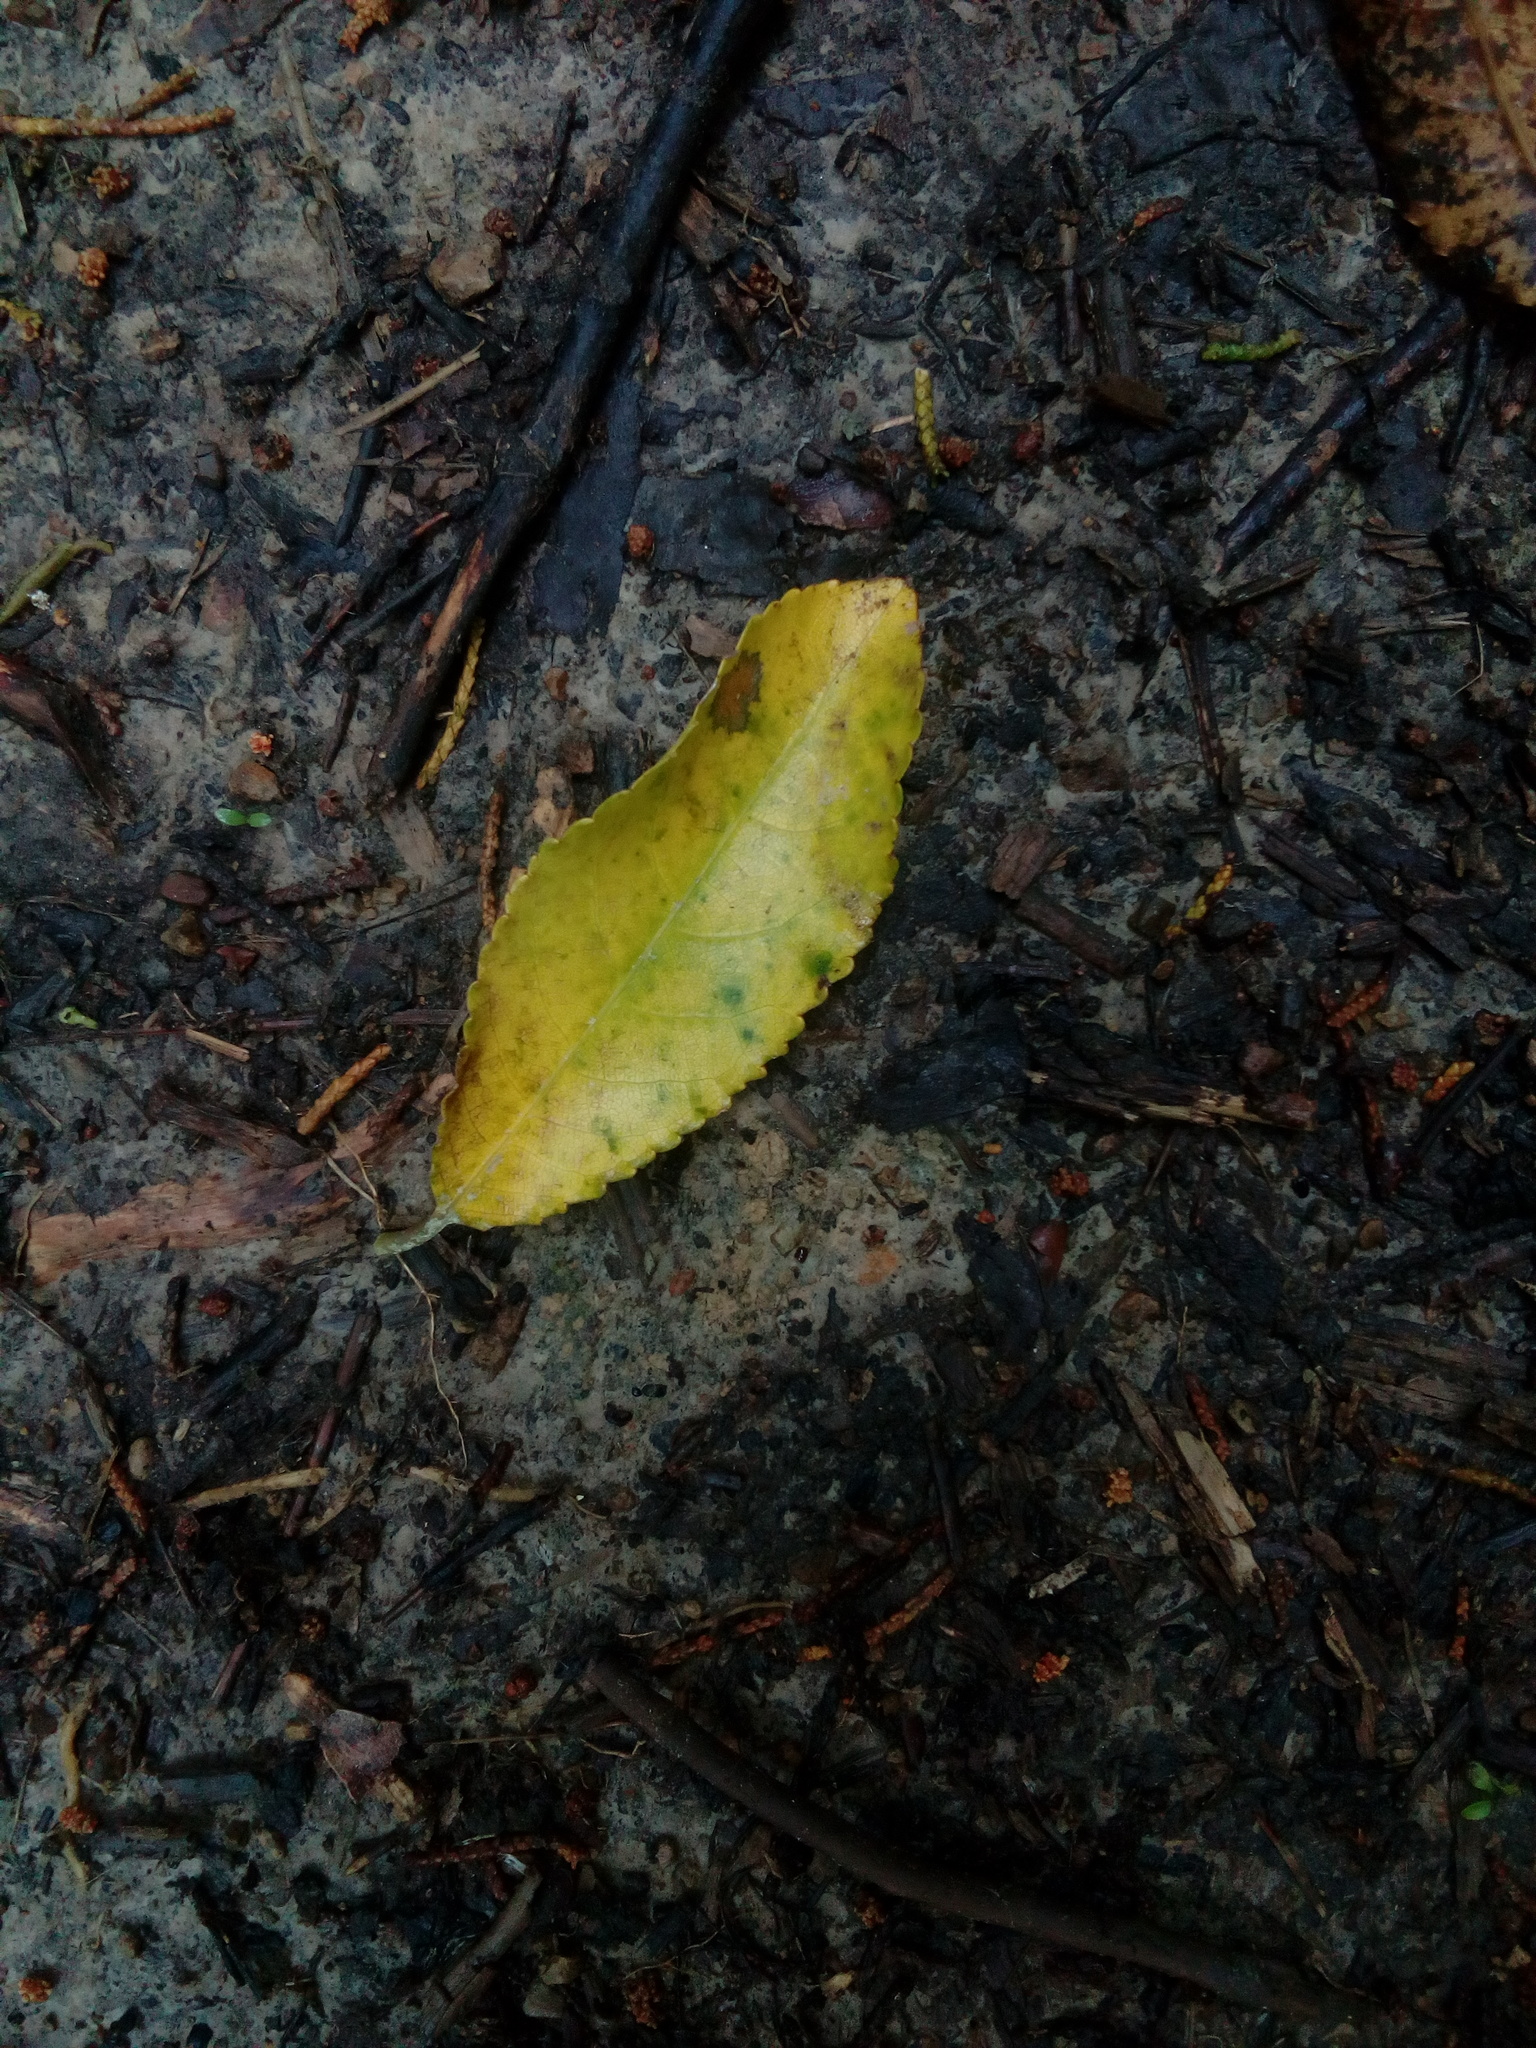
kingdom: Plantae
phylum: Tracheophyta
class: Magnoliopsida
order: Malpighiales
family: Violaceae
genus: Melicytus
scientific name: Melicytus ramiflorus
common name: Mahoe
